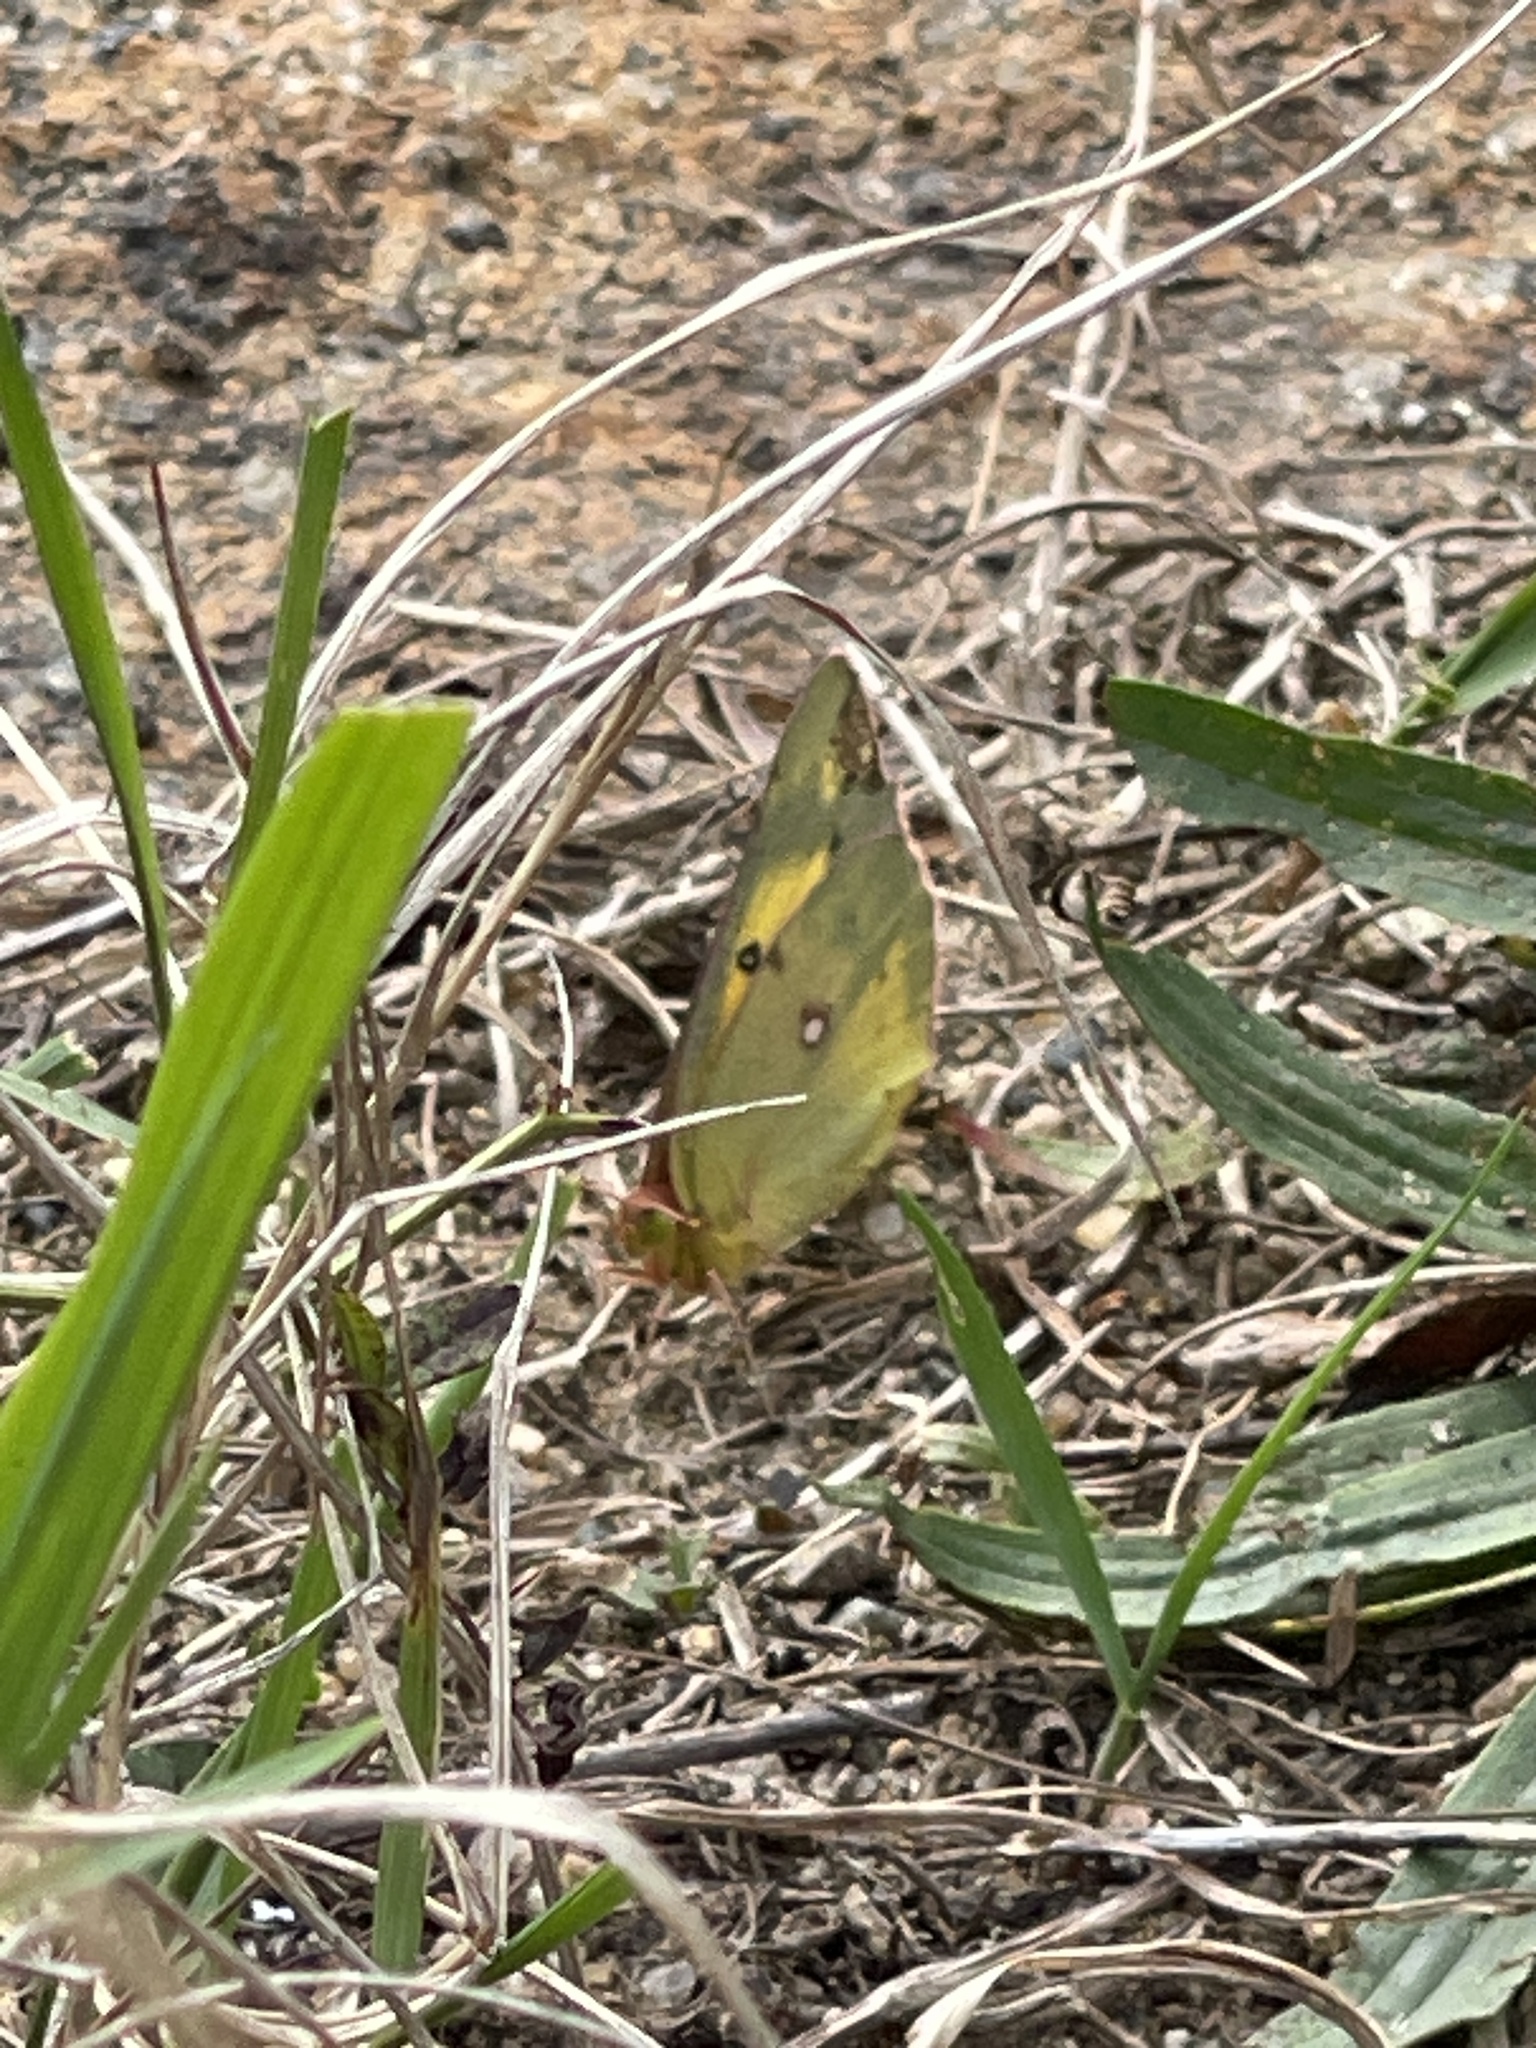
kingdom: Animalia
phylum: Arthropoda
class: Insecta
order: Lepidoptera
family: Pieridae
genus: Colias
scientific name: Colias eurytheme
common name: Alfalfa butterfly
